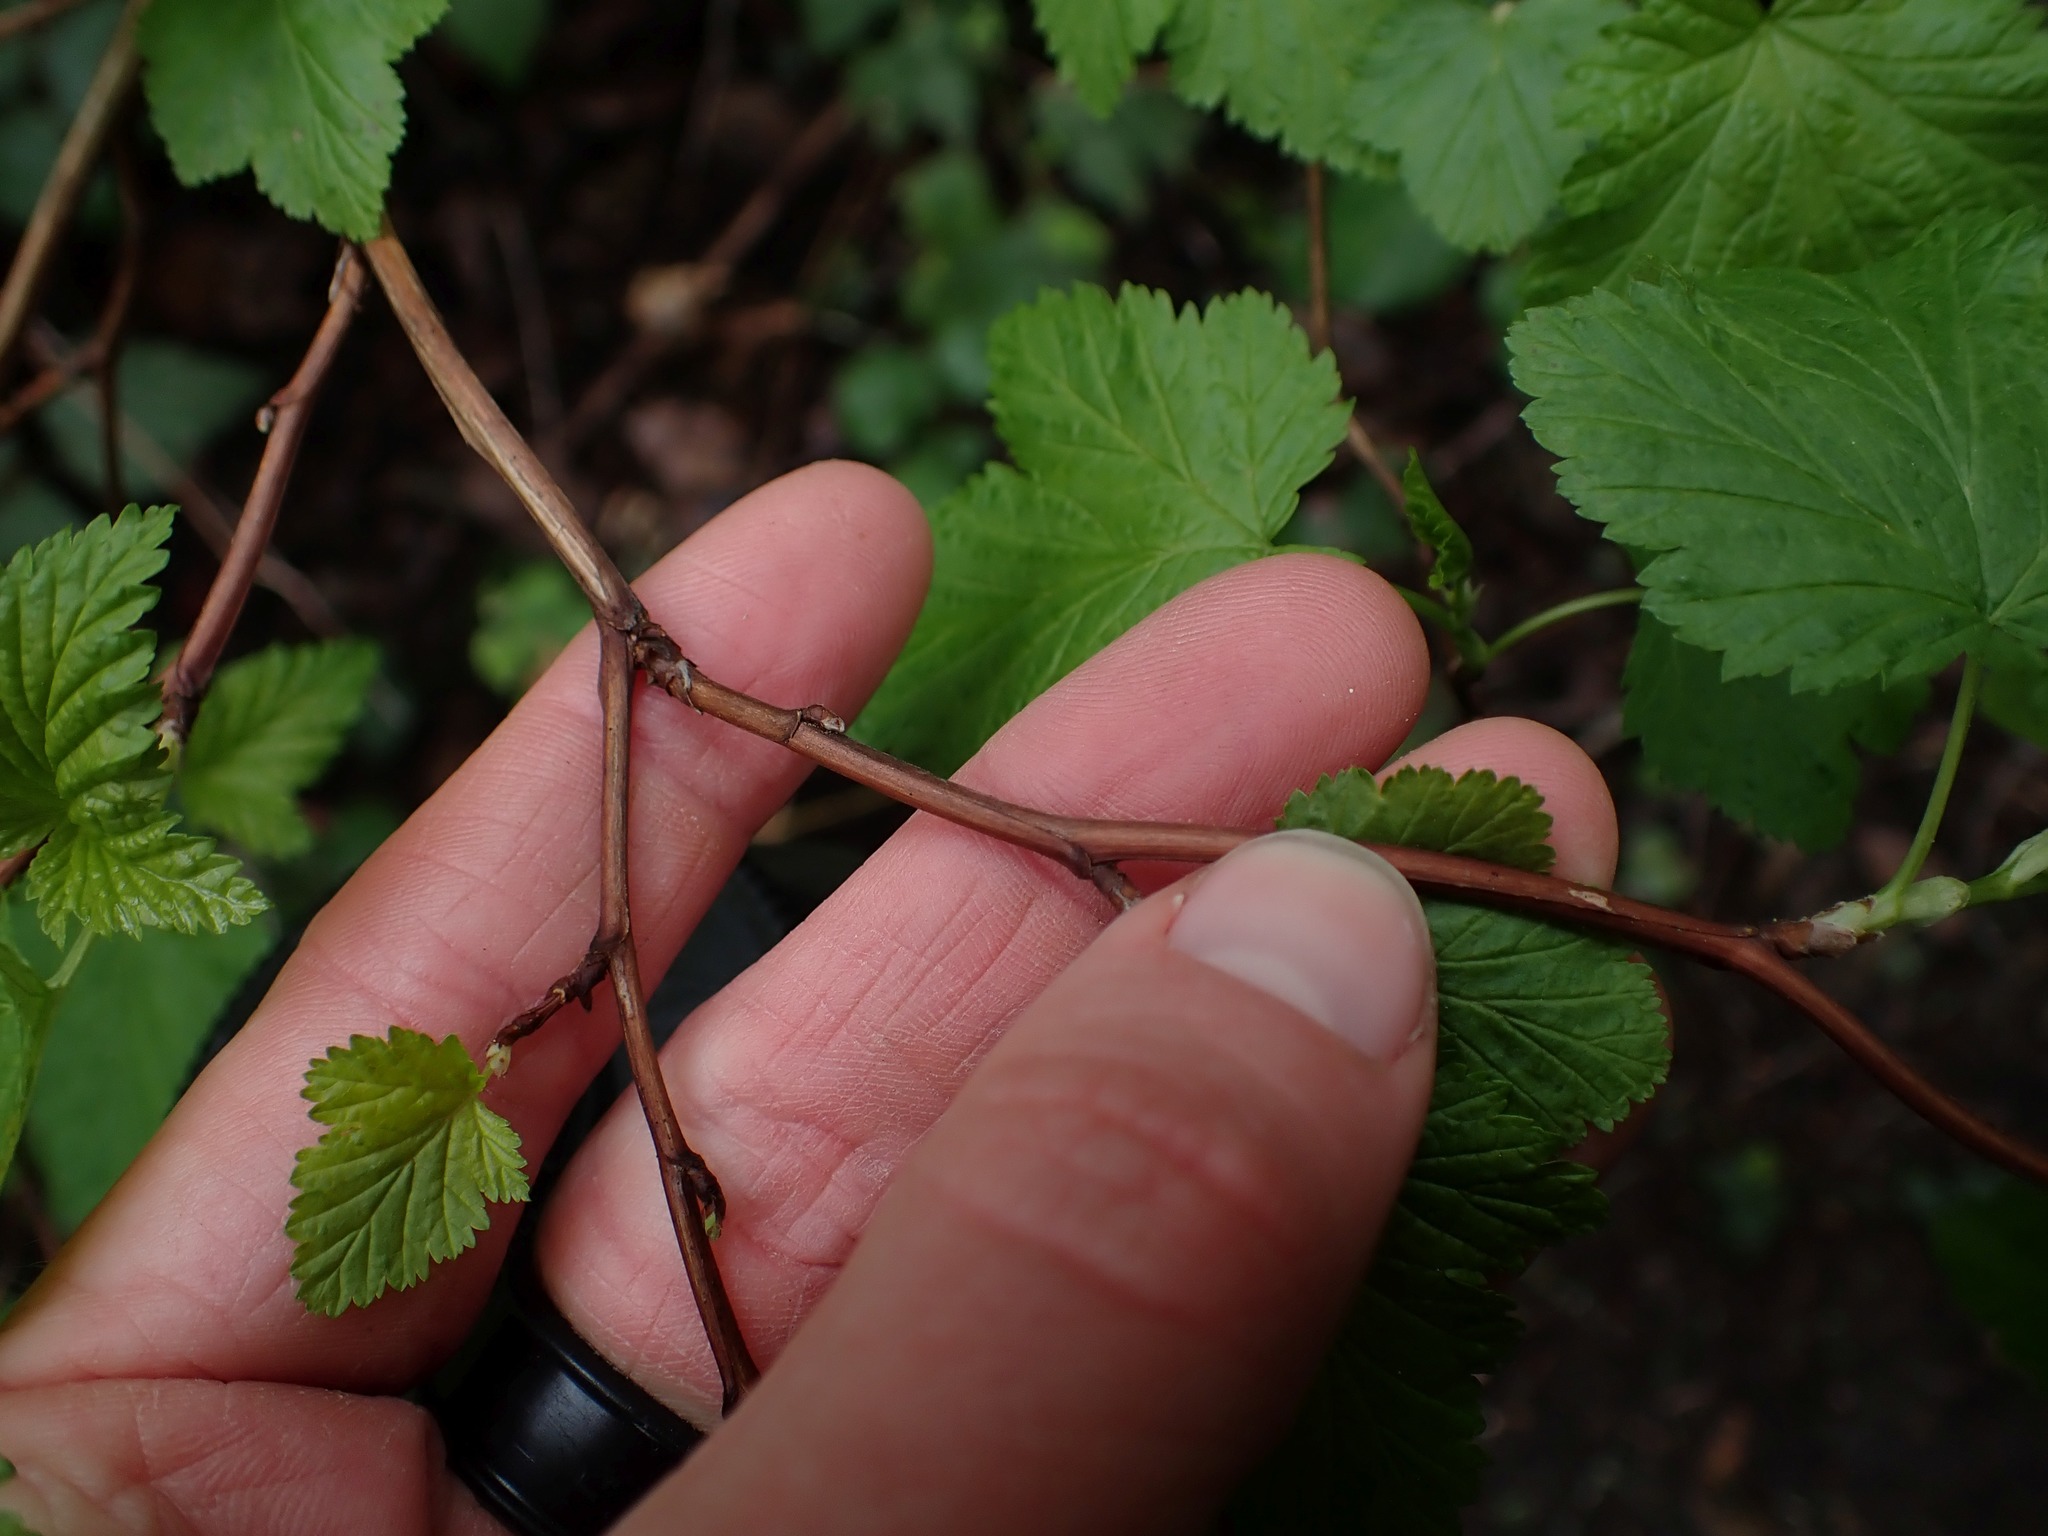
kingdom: Plantae
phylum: Tracheophyta
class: Magnoliopsida
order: Rosales
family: Rosaceae
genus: Physocarpus
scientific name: Physocarpus capitatus
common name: Pacific ninebark
